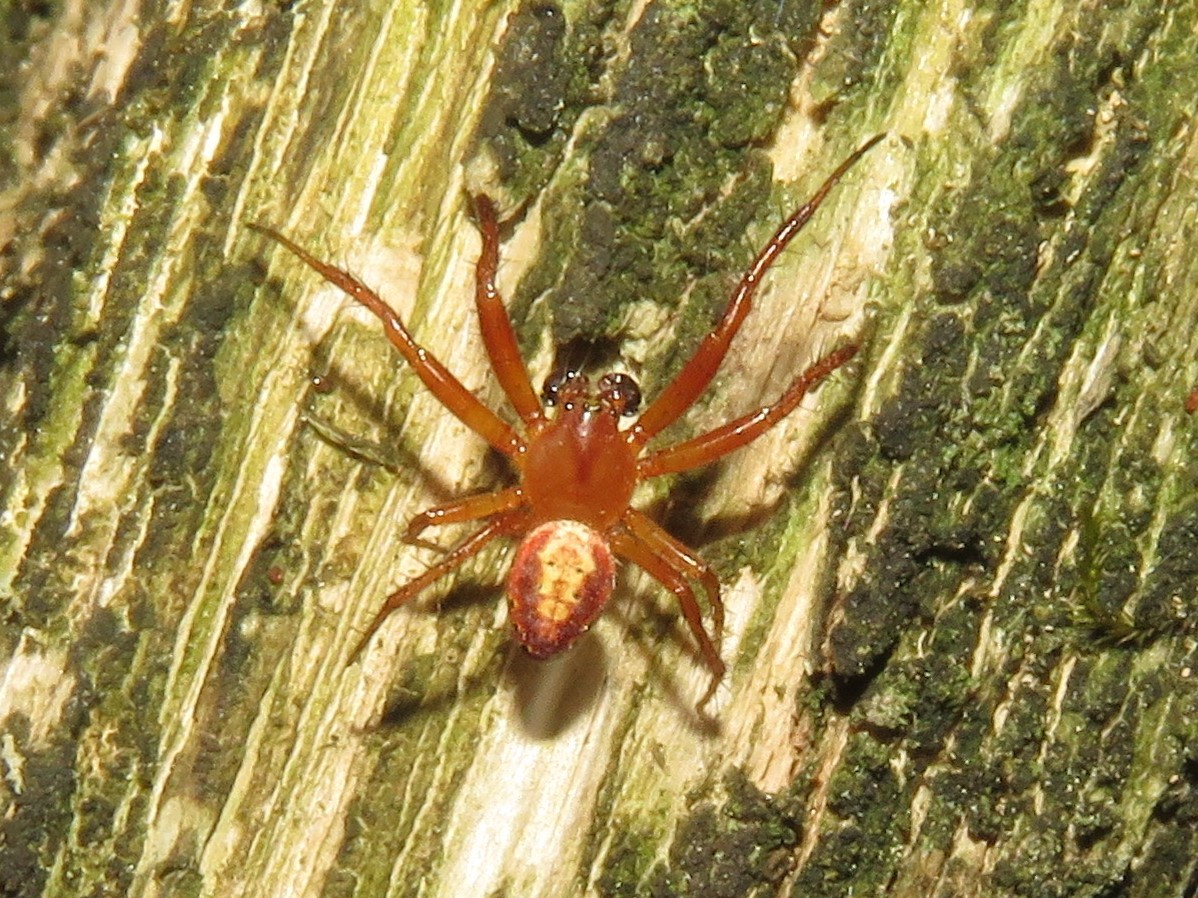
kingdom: Animalia
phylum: Arthropoda
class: Arachnida
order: Araneae
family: Araneidae
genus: Araniella
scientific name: Araniella displicata
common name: Sixspotted orb weaver
